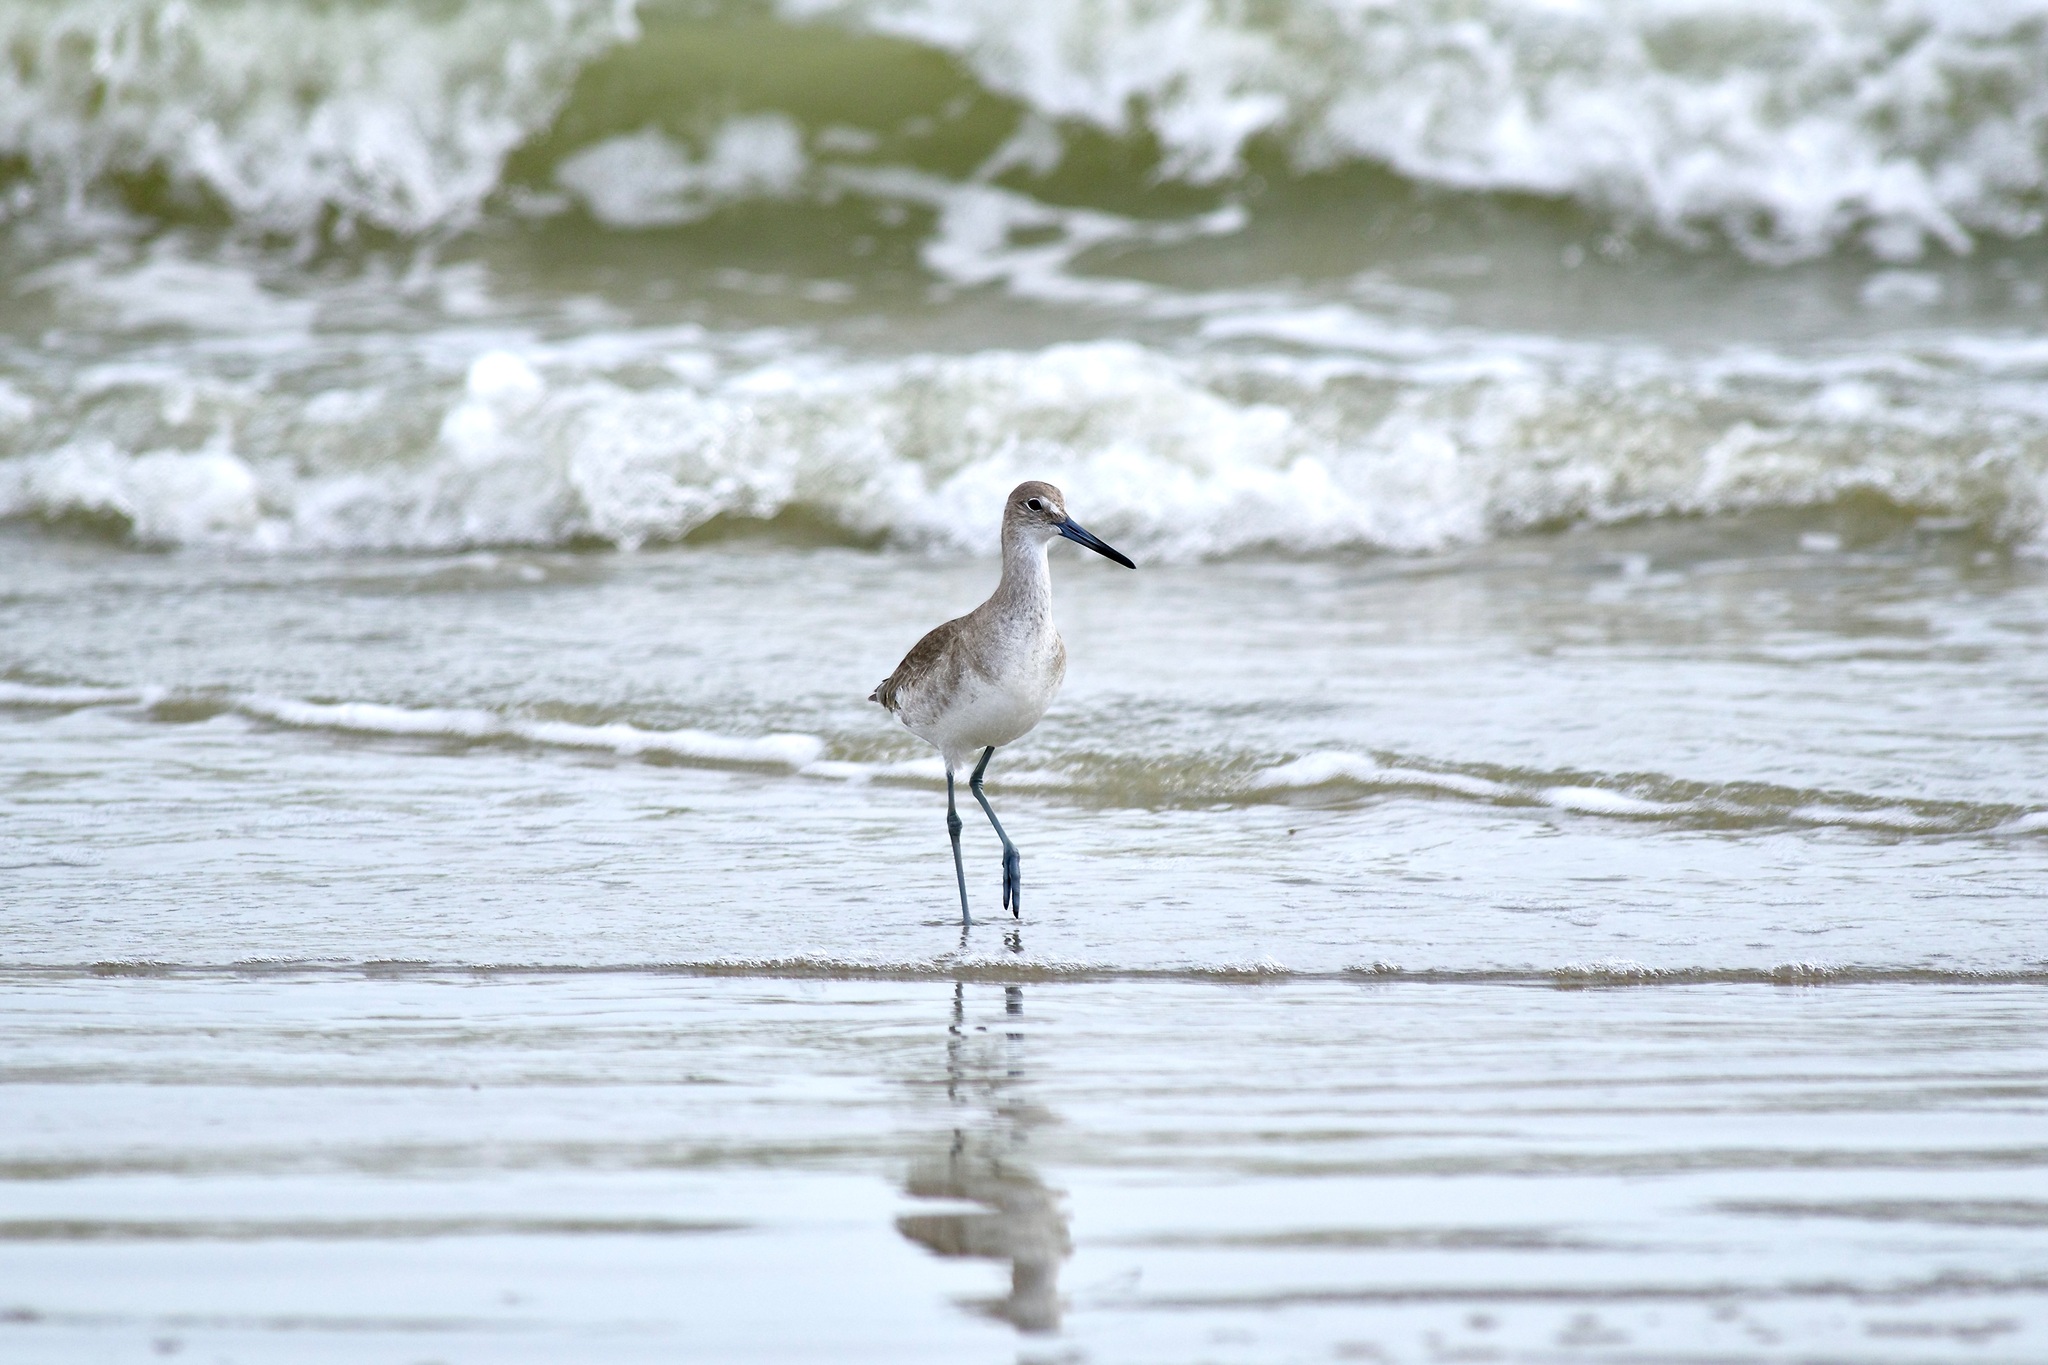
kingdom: Animalia
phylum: Chordata
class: Aves
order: Charadriiformes
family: Scolopacidae
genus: Tringa
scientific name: Tringa semipalmata
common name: Willet
